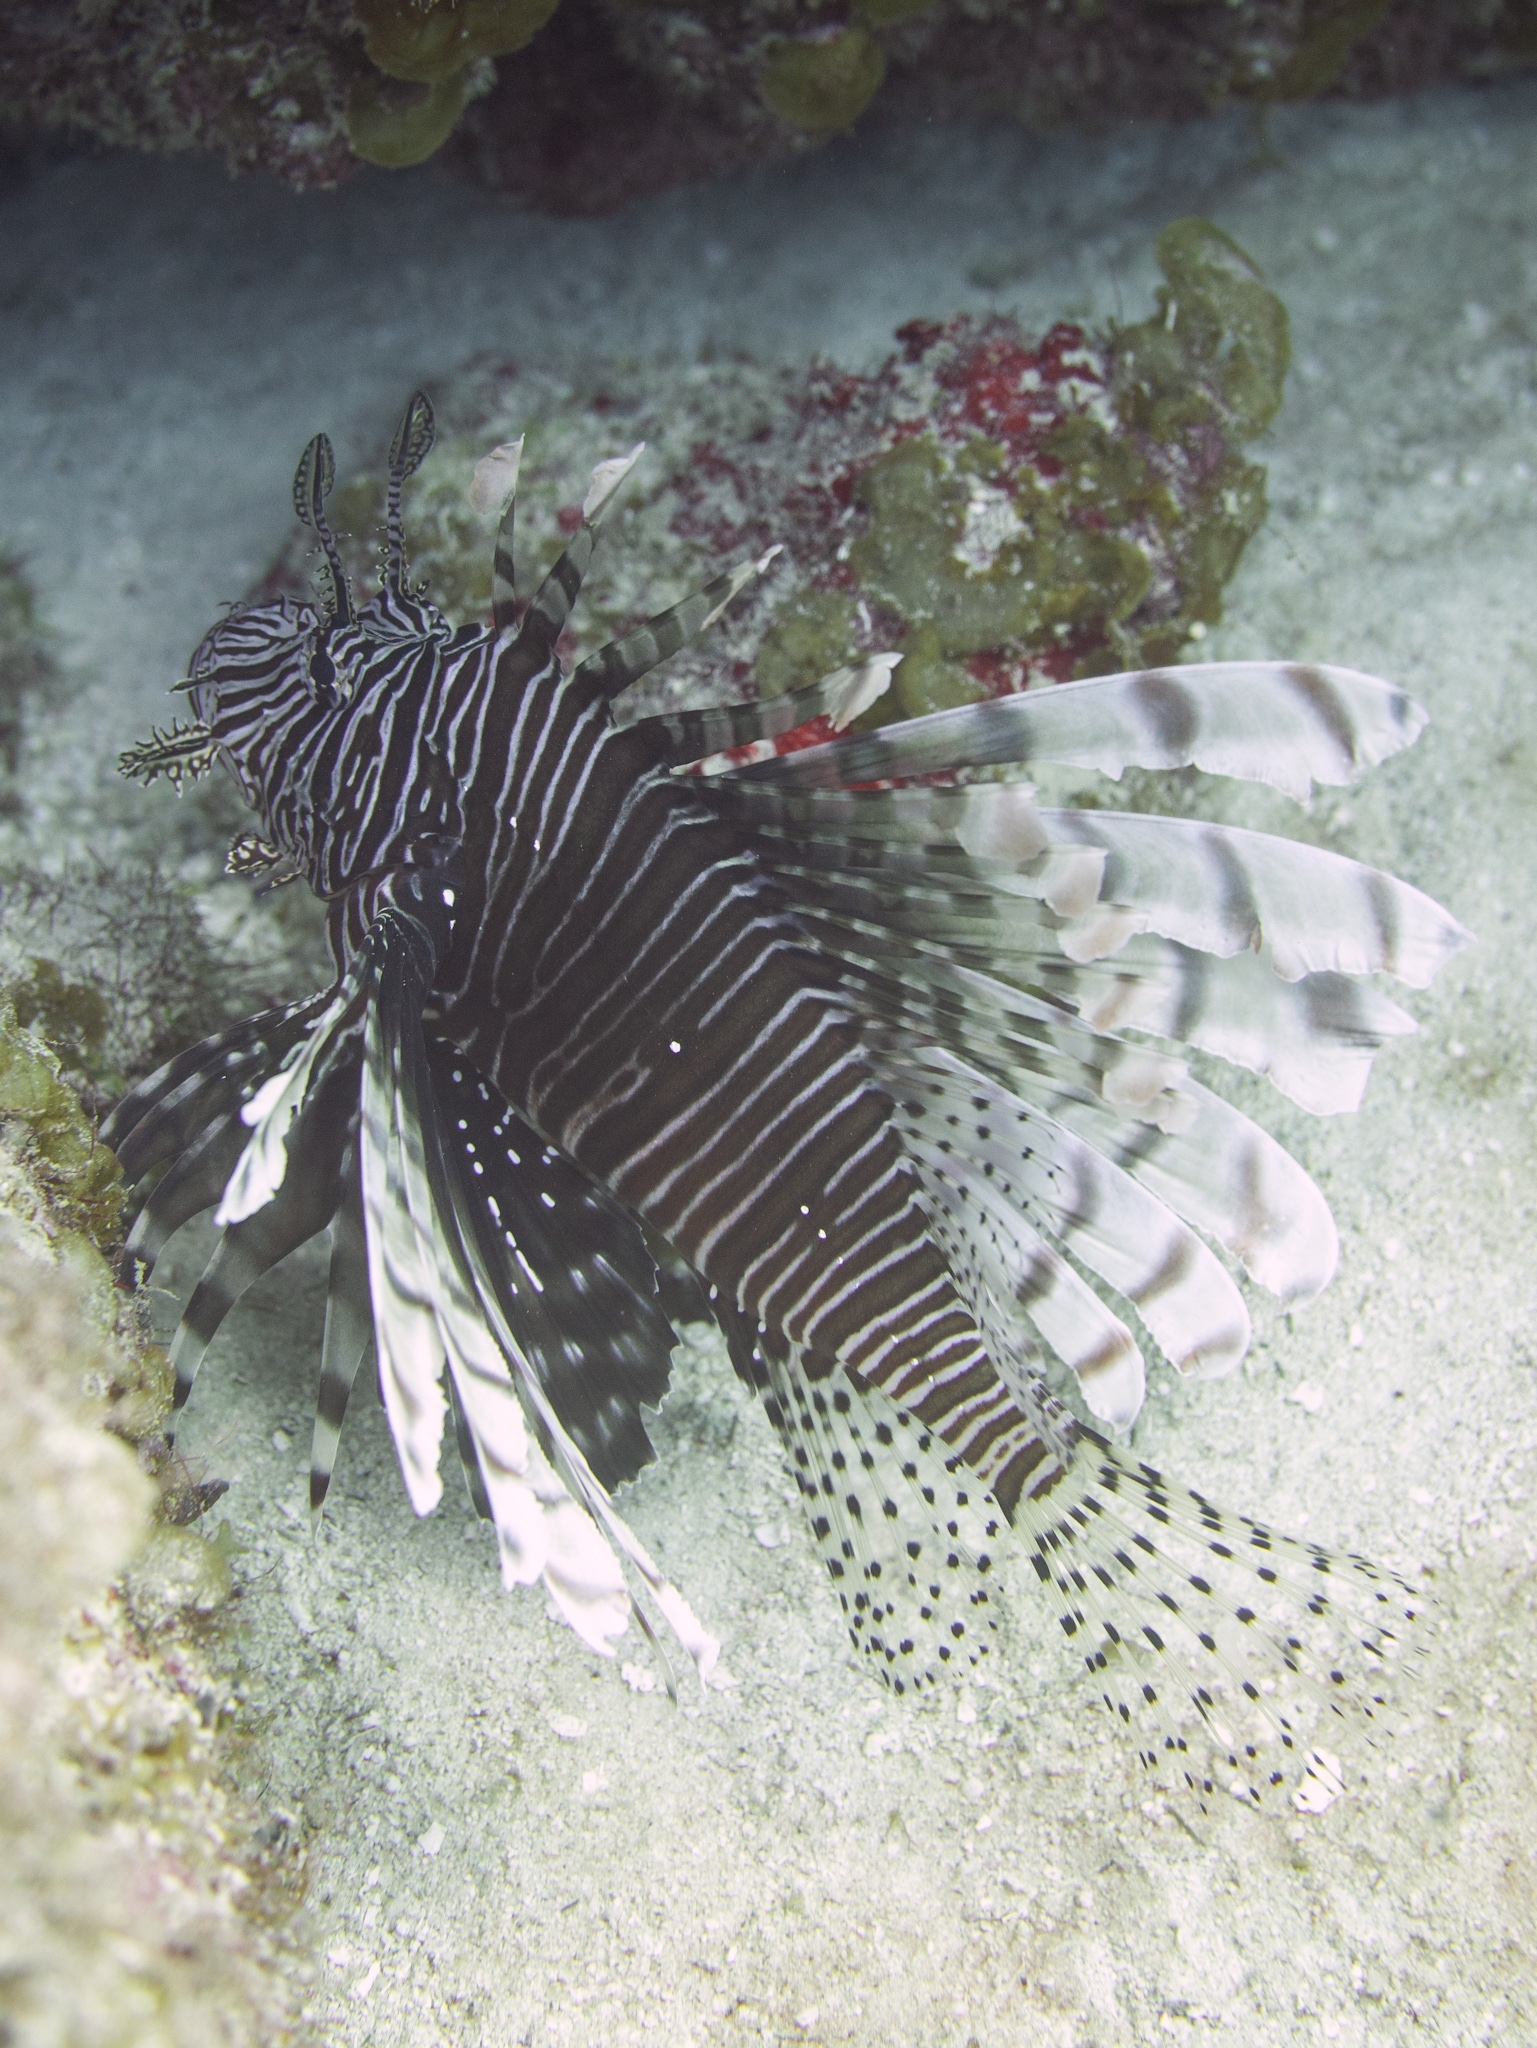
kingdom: Animalia
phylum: Chordata
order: Scorpaeniformes
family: Scorpaenidae
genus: Pterois
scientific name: Pterois volitans
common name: Lionfish
